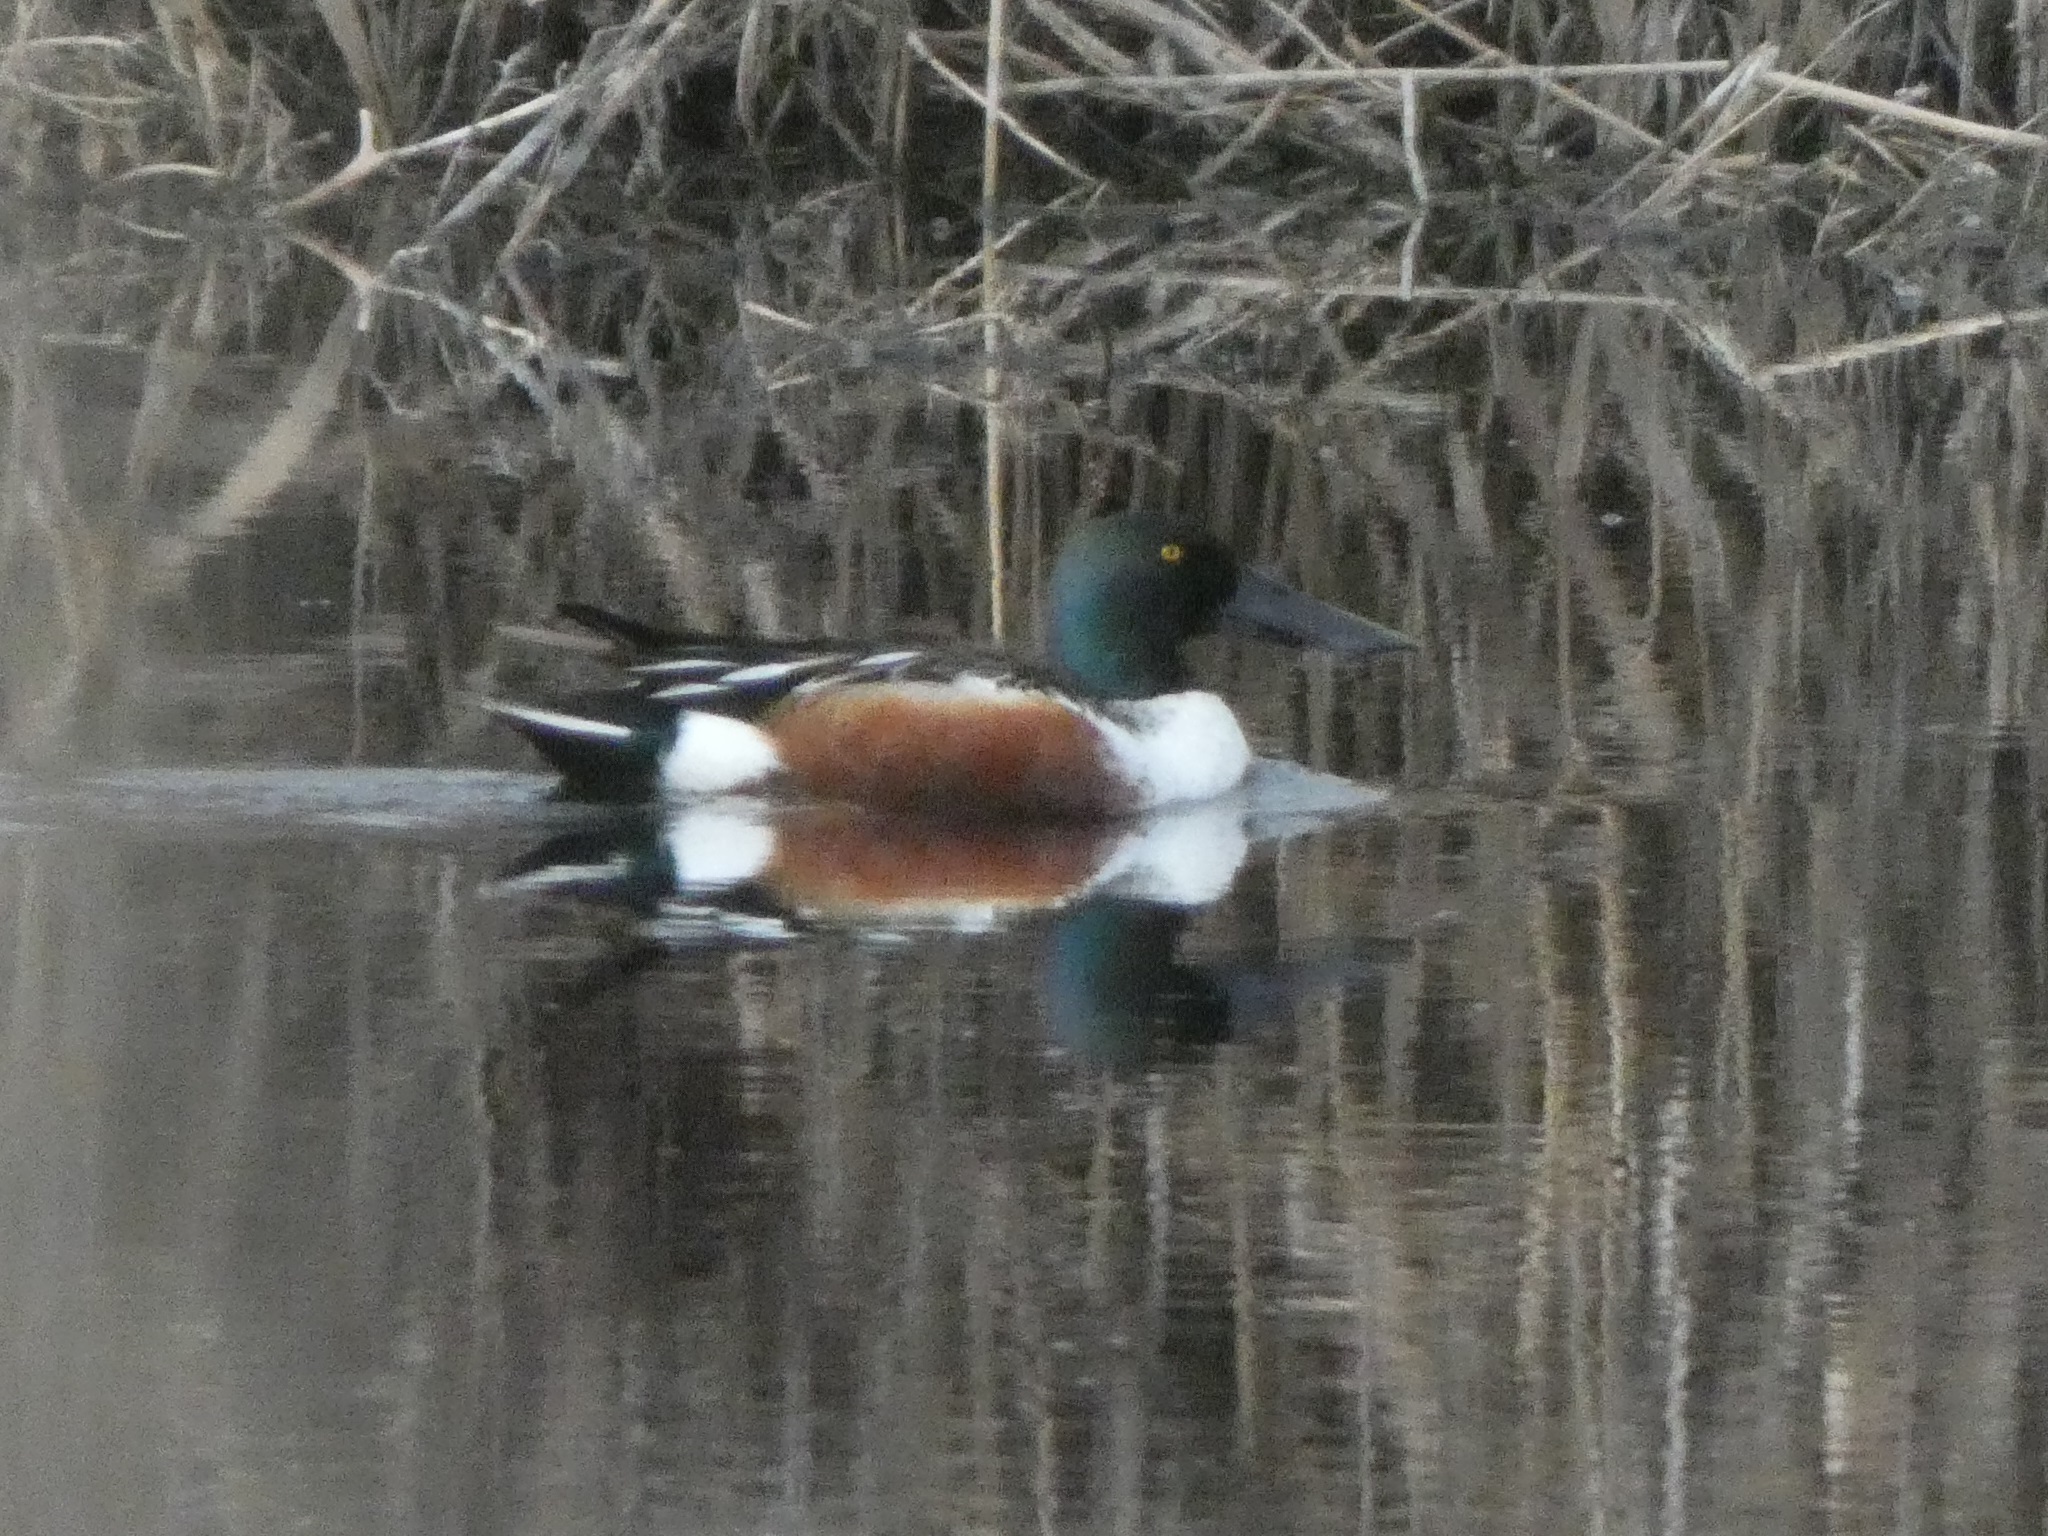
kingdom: Animalia
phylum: Chordata
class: Aves
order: Anseriformes
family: Anatidae
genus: Spatula
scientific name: Spatula clypeata
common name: Northern shoveler
